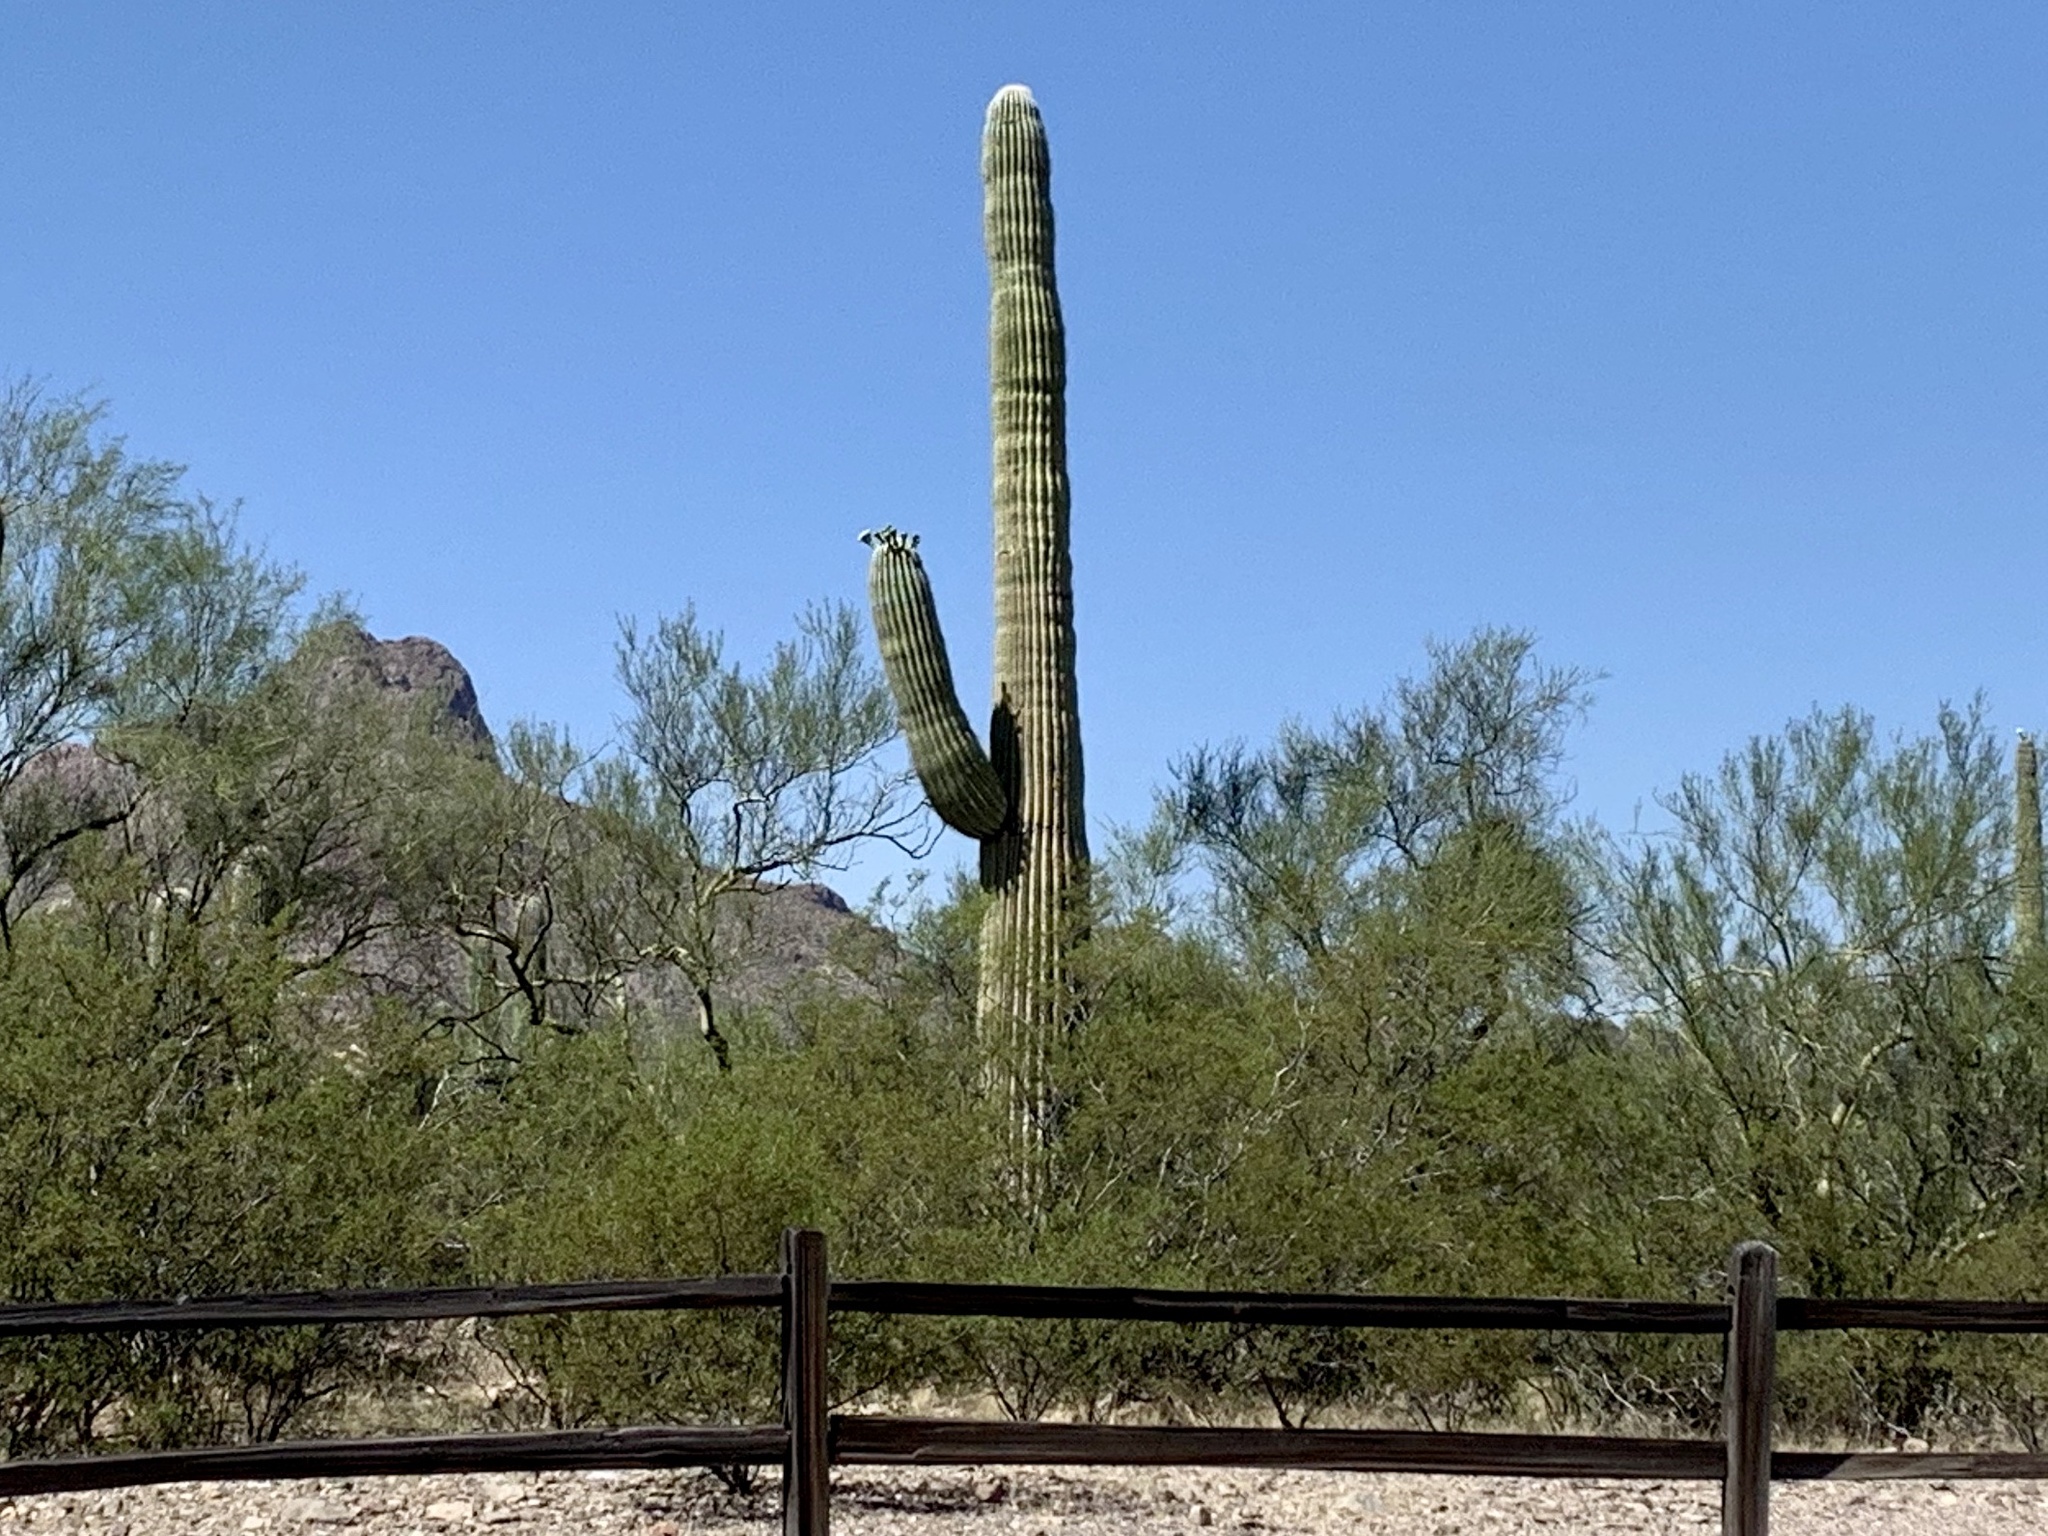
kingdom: Plantae
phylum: Tracheophyta
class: Magnoliopsida
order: Caryophyllales
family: Cactaceae
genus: Carnegiea
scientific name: Carnegiea gigantea
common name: Saguaro
